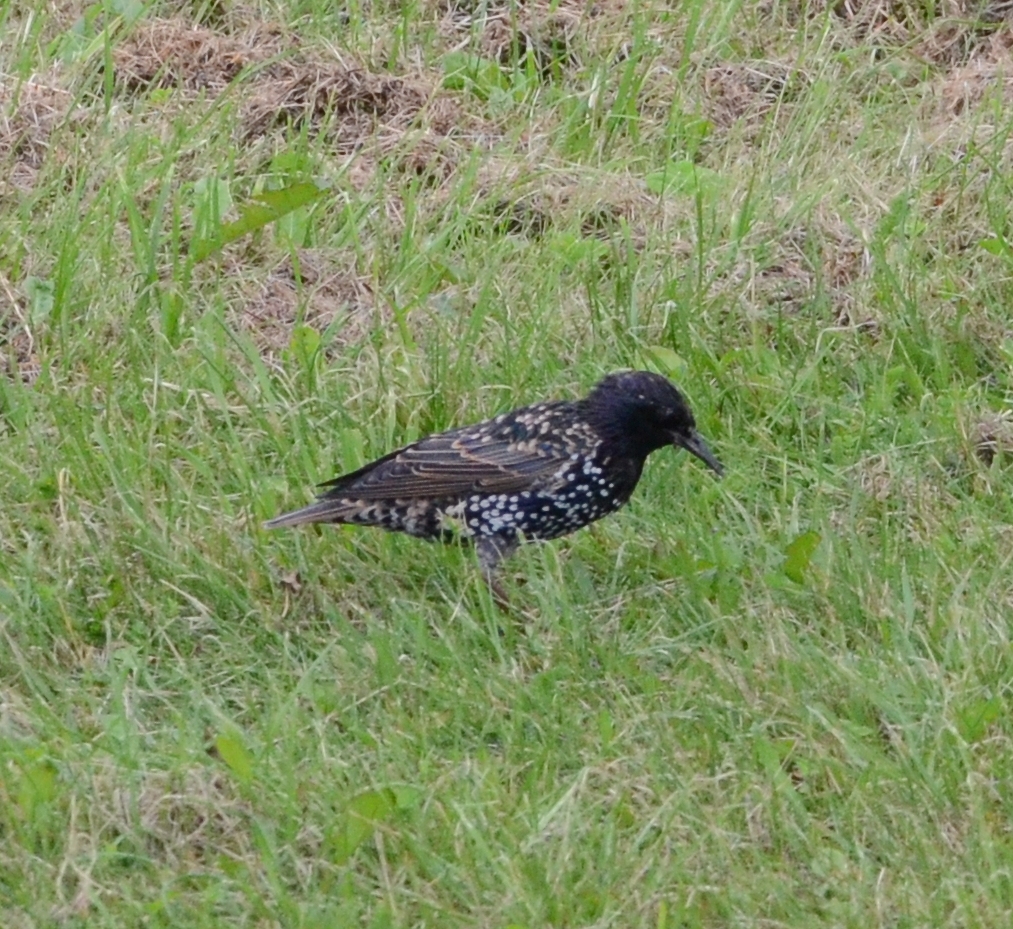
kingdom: Animalia
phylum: Chordata
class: Aves
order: Passeriformes
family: Sturnidae
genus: Sturnus
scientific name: Sturnus vulgaris
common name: Common starling
